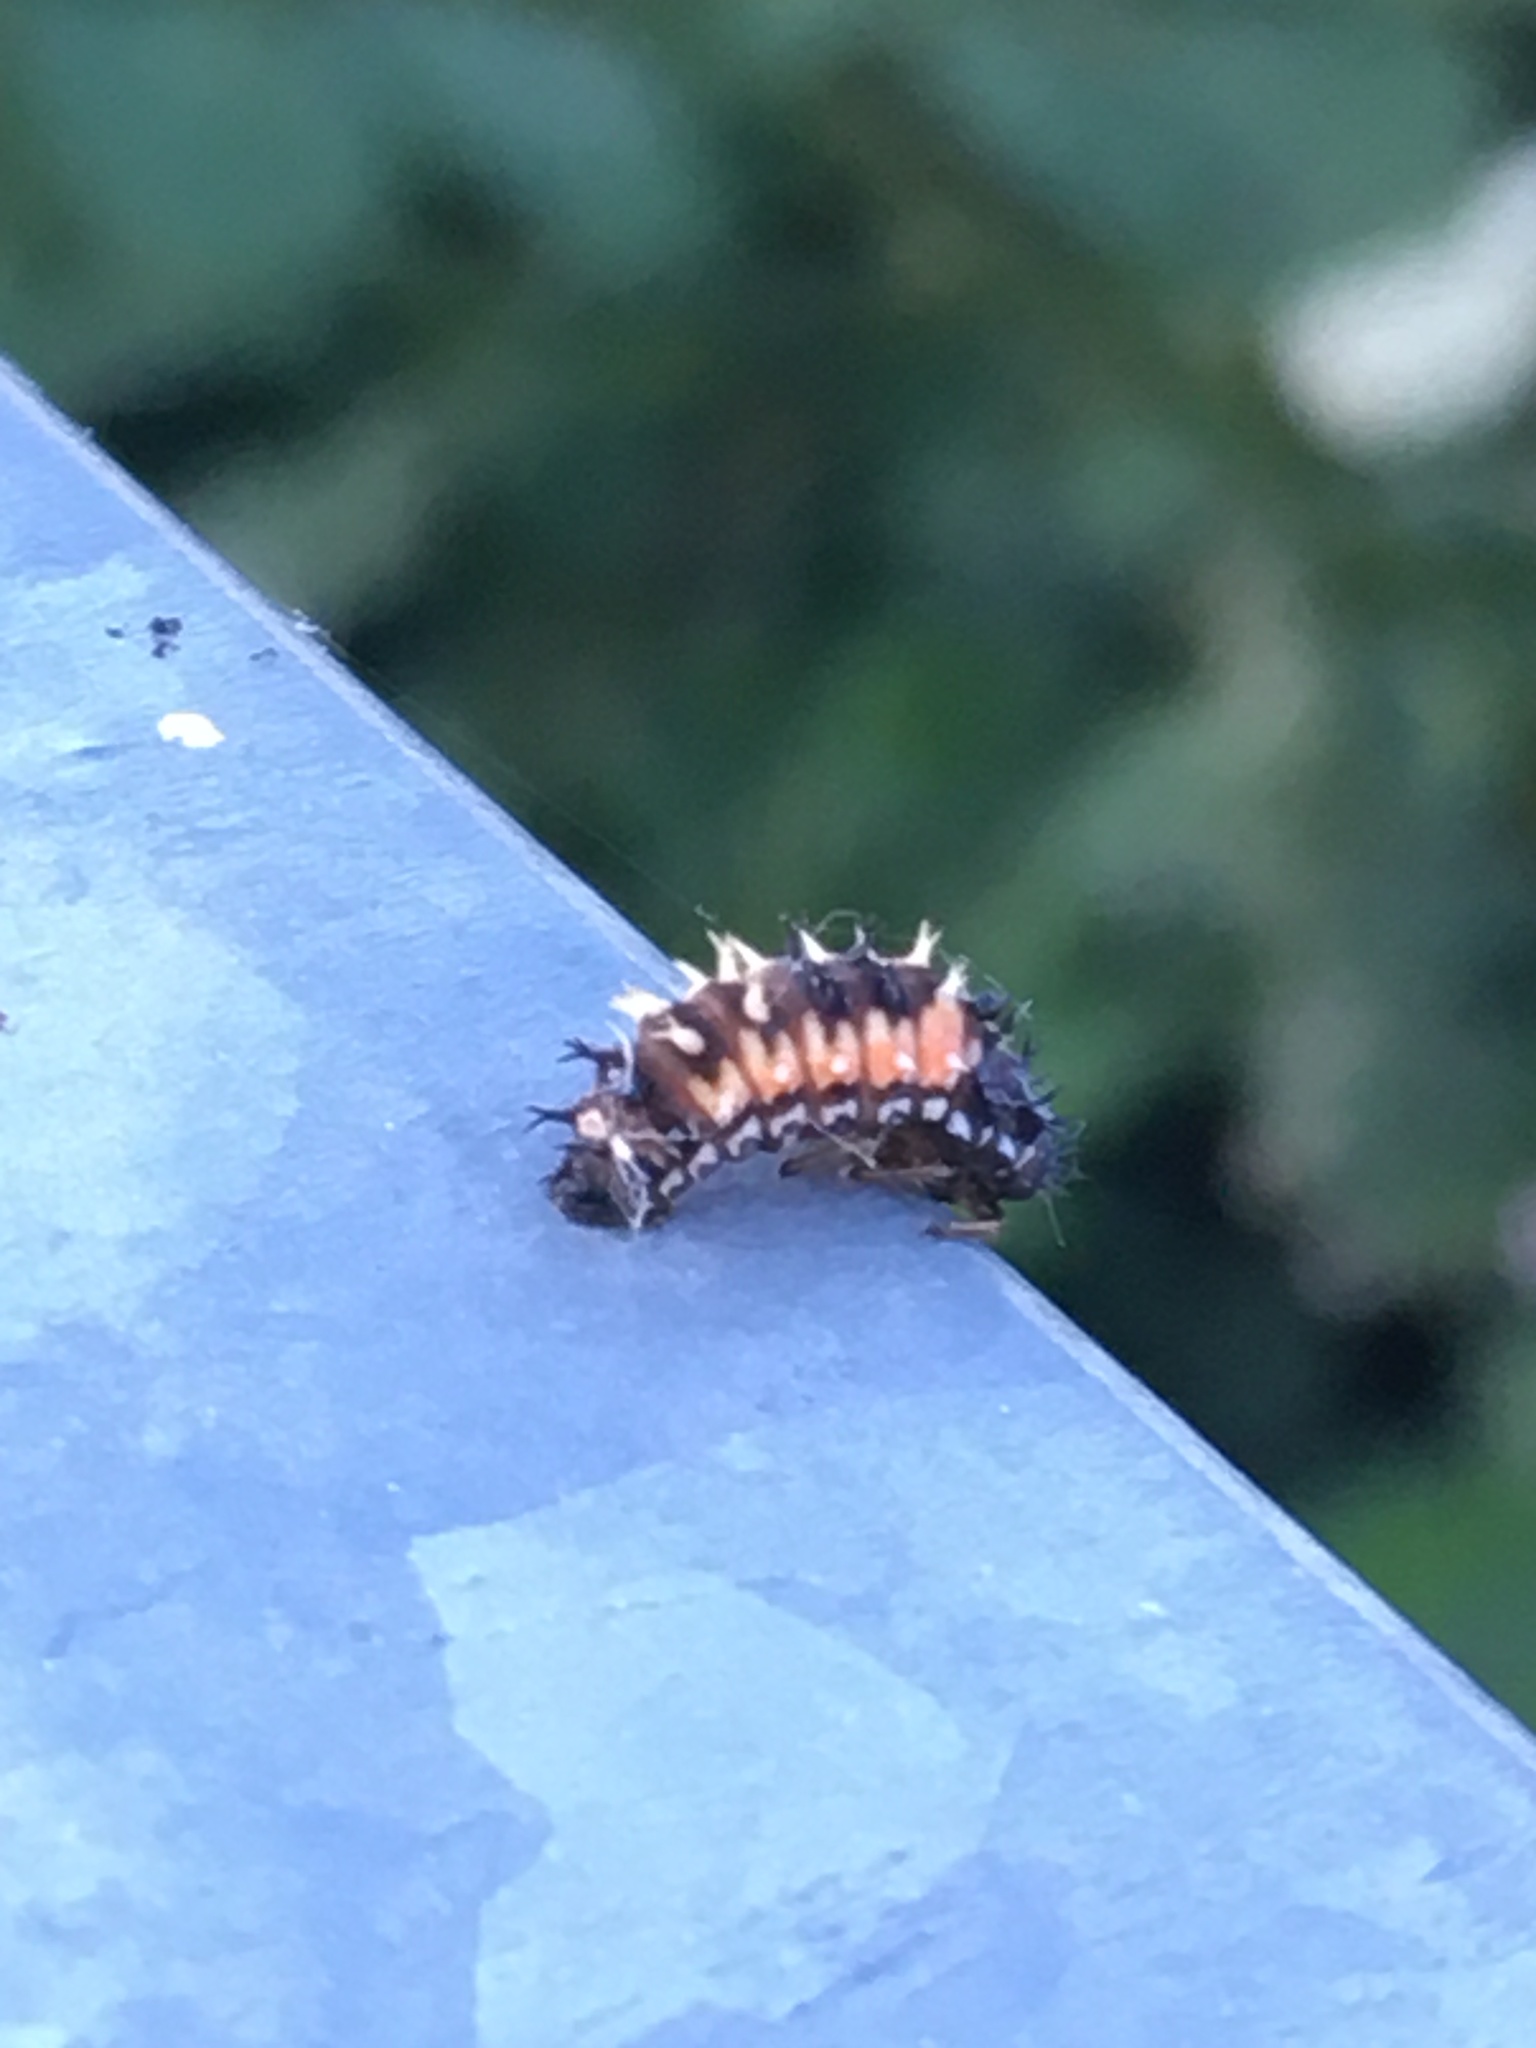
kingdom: Animalia
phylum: Arthropoda
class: Insecta
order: Coleoptera
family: Coccinellidae
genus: Harmonia
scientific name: Harmonia axyridis
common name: Harlequin ladybird
